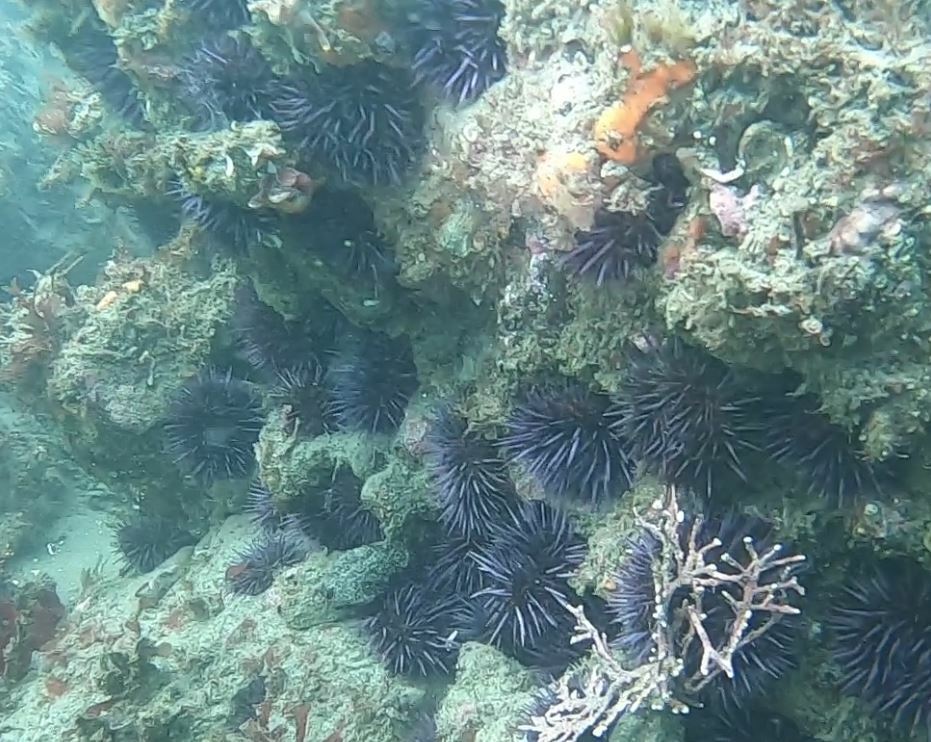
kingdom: Animalia
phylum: Echinodermata
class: Echinoidea
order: Camarodonta
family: Strongylocentrotidae
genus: Strongylocentrotus
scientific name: Strongylocentrotus purpuratus
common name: Purple sea urchin
